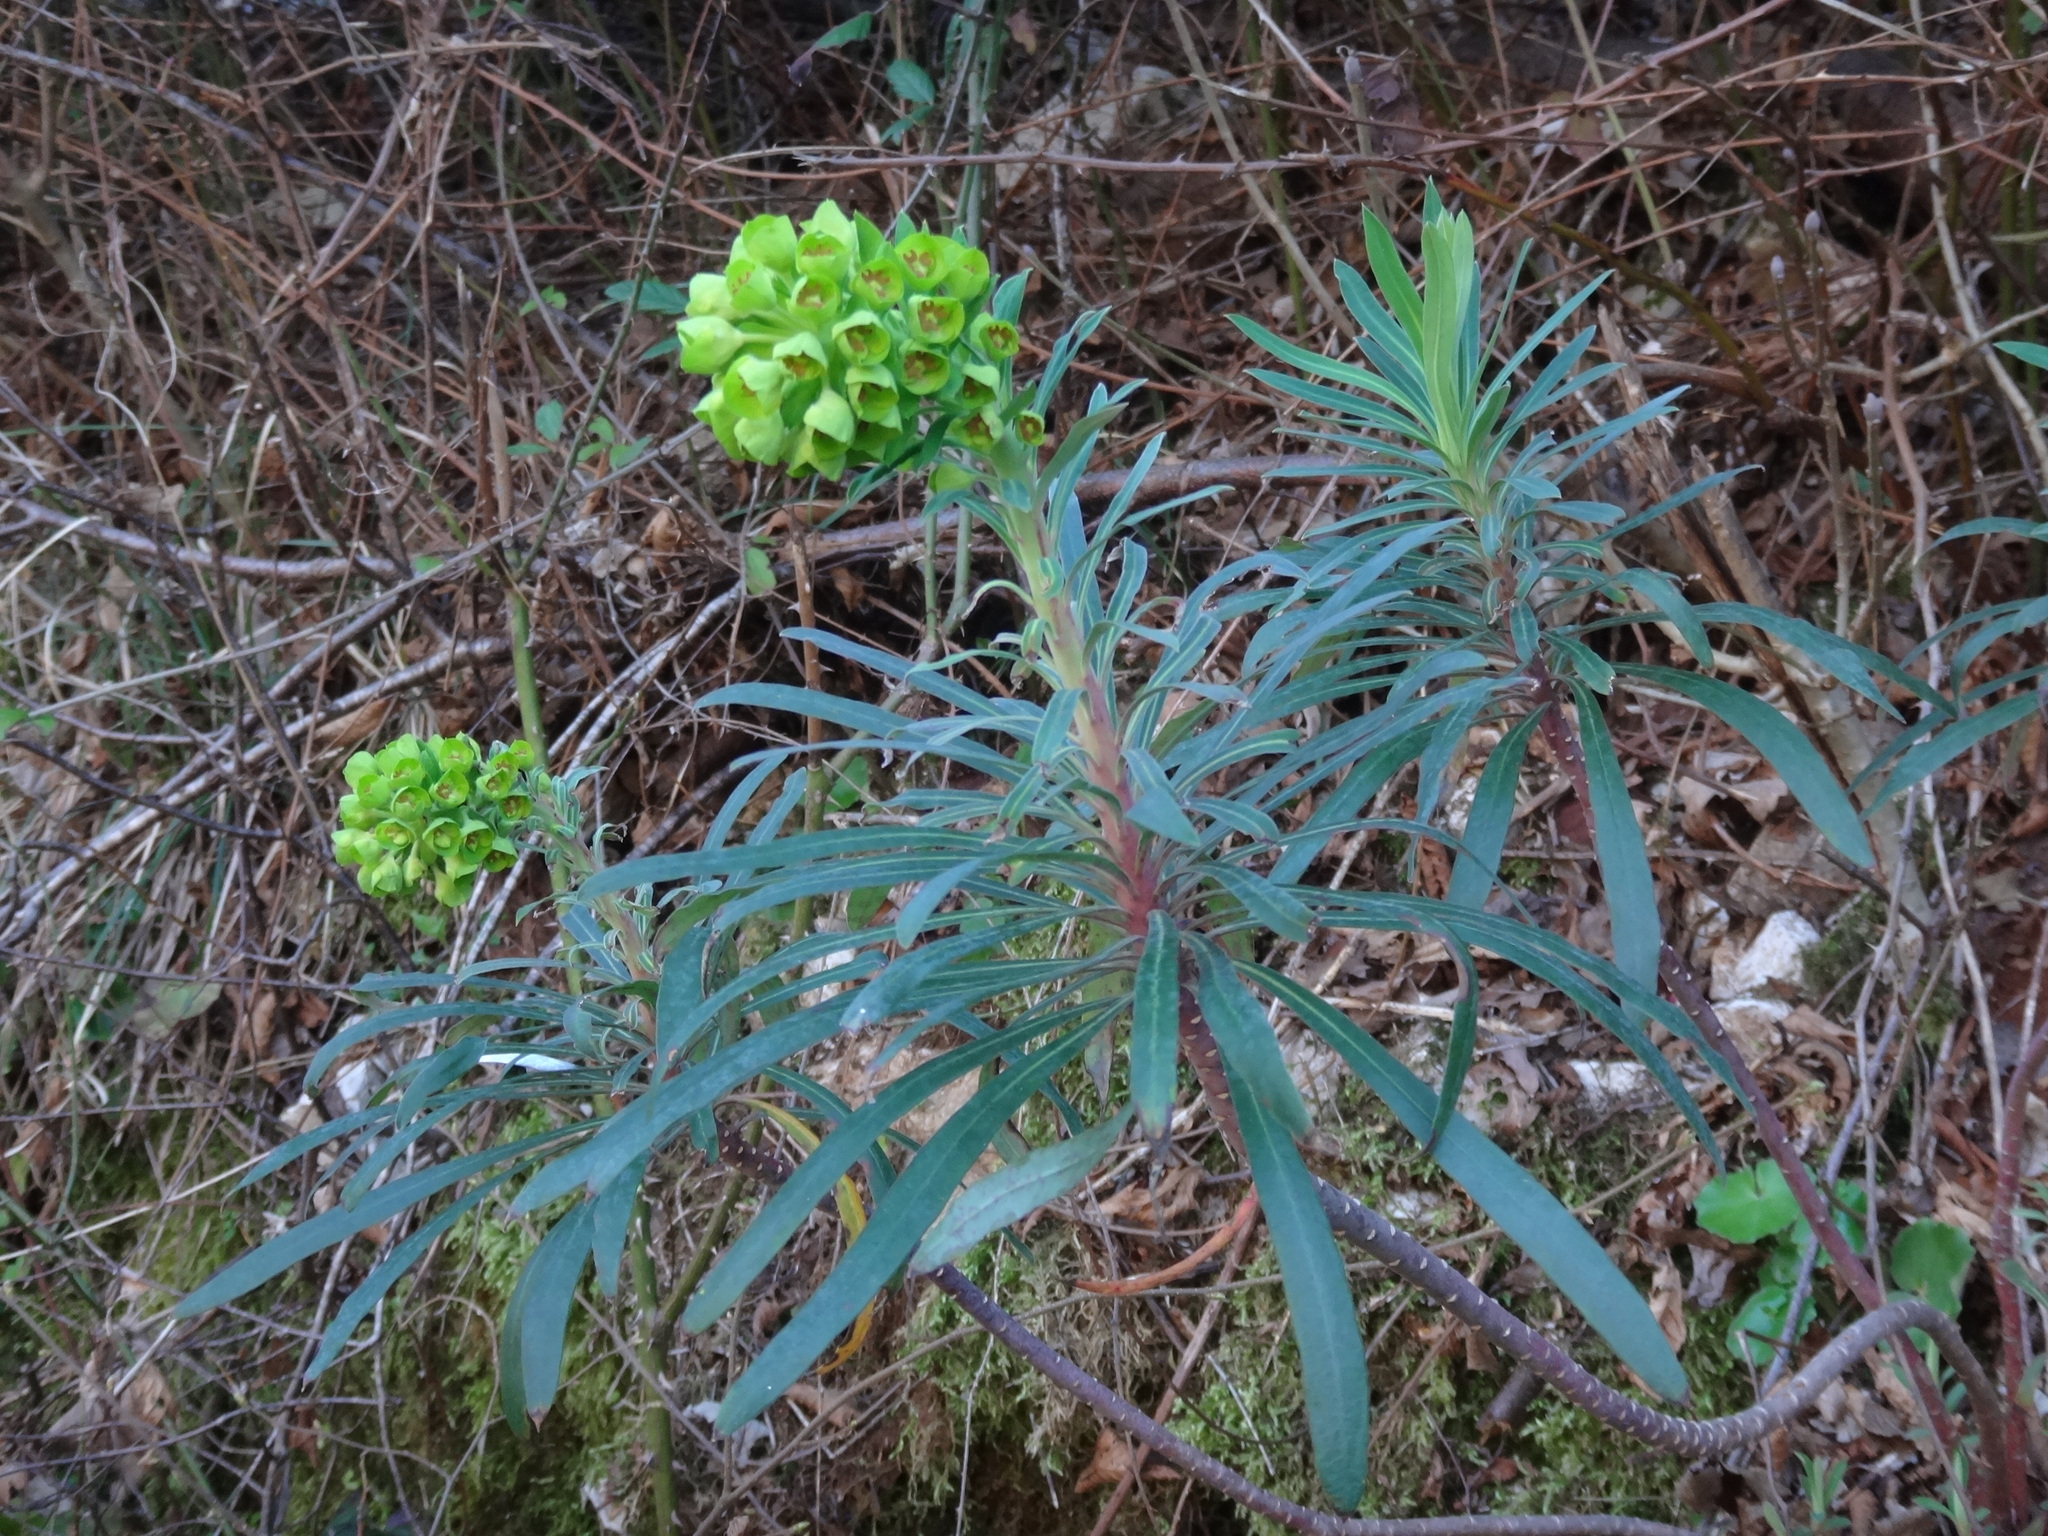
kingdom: Plantae
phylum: Tracheophyta
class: Magnoliopsida
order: Malpighiales
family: Euphorbiaceae
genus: Euphorbia
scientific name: Euphorbia characias
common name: Mediterranean spurge
